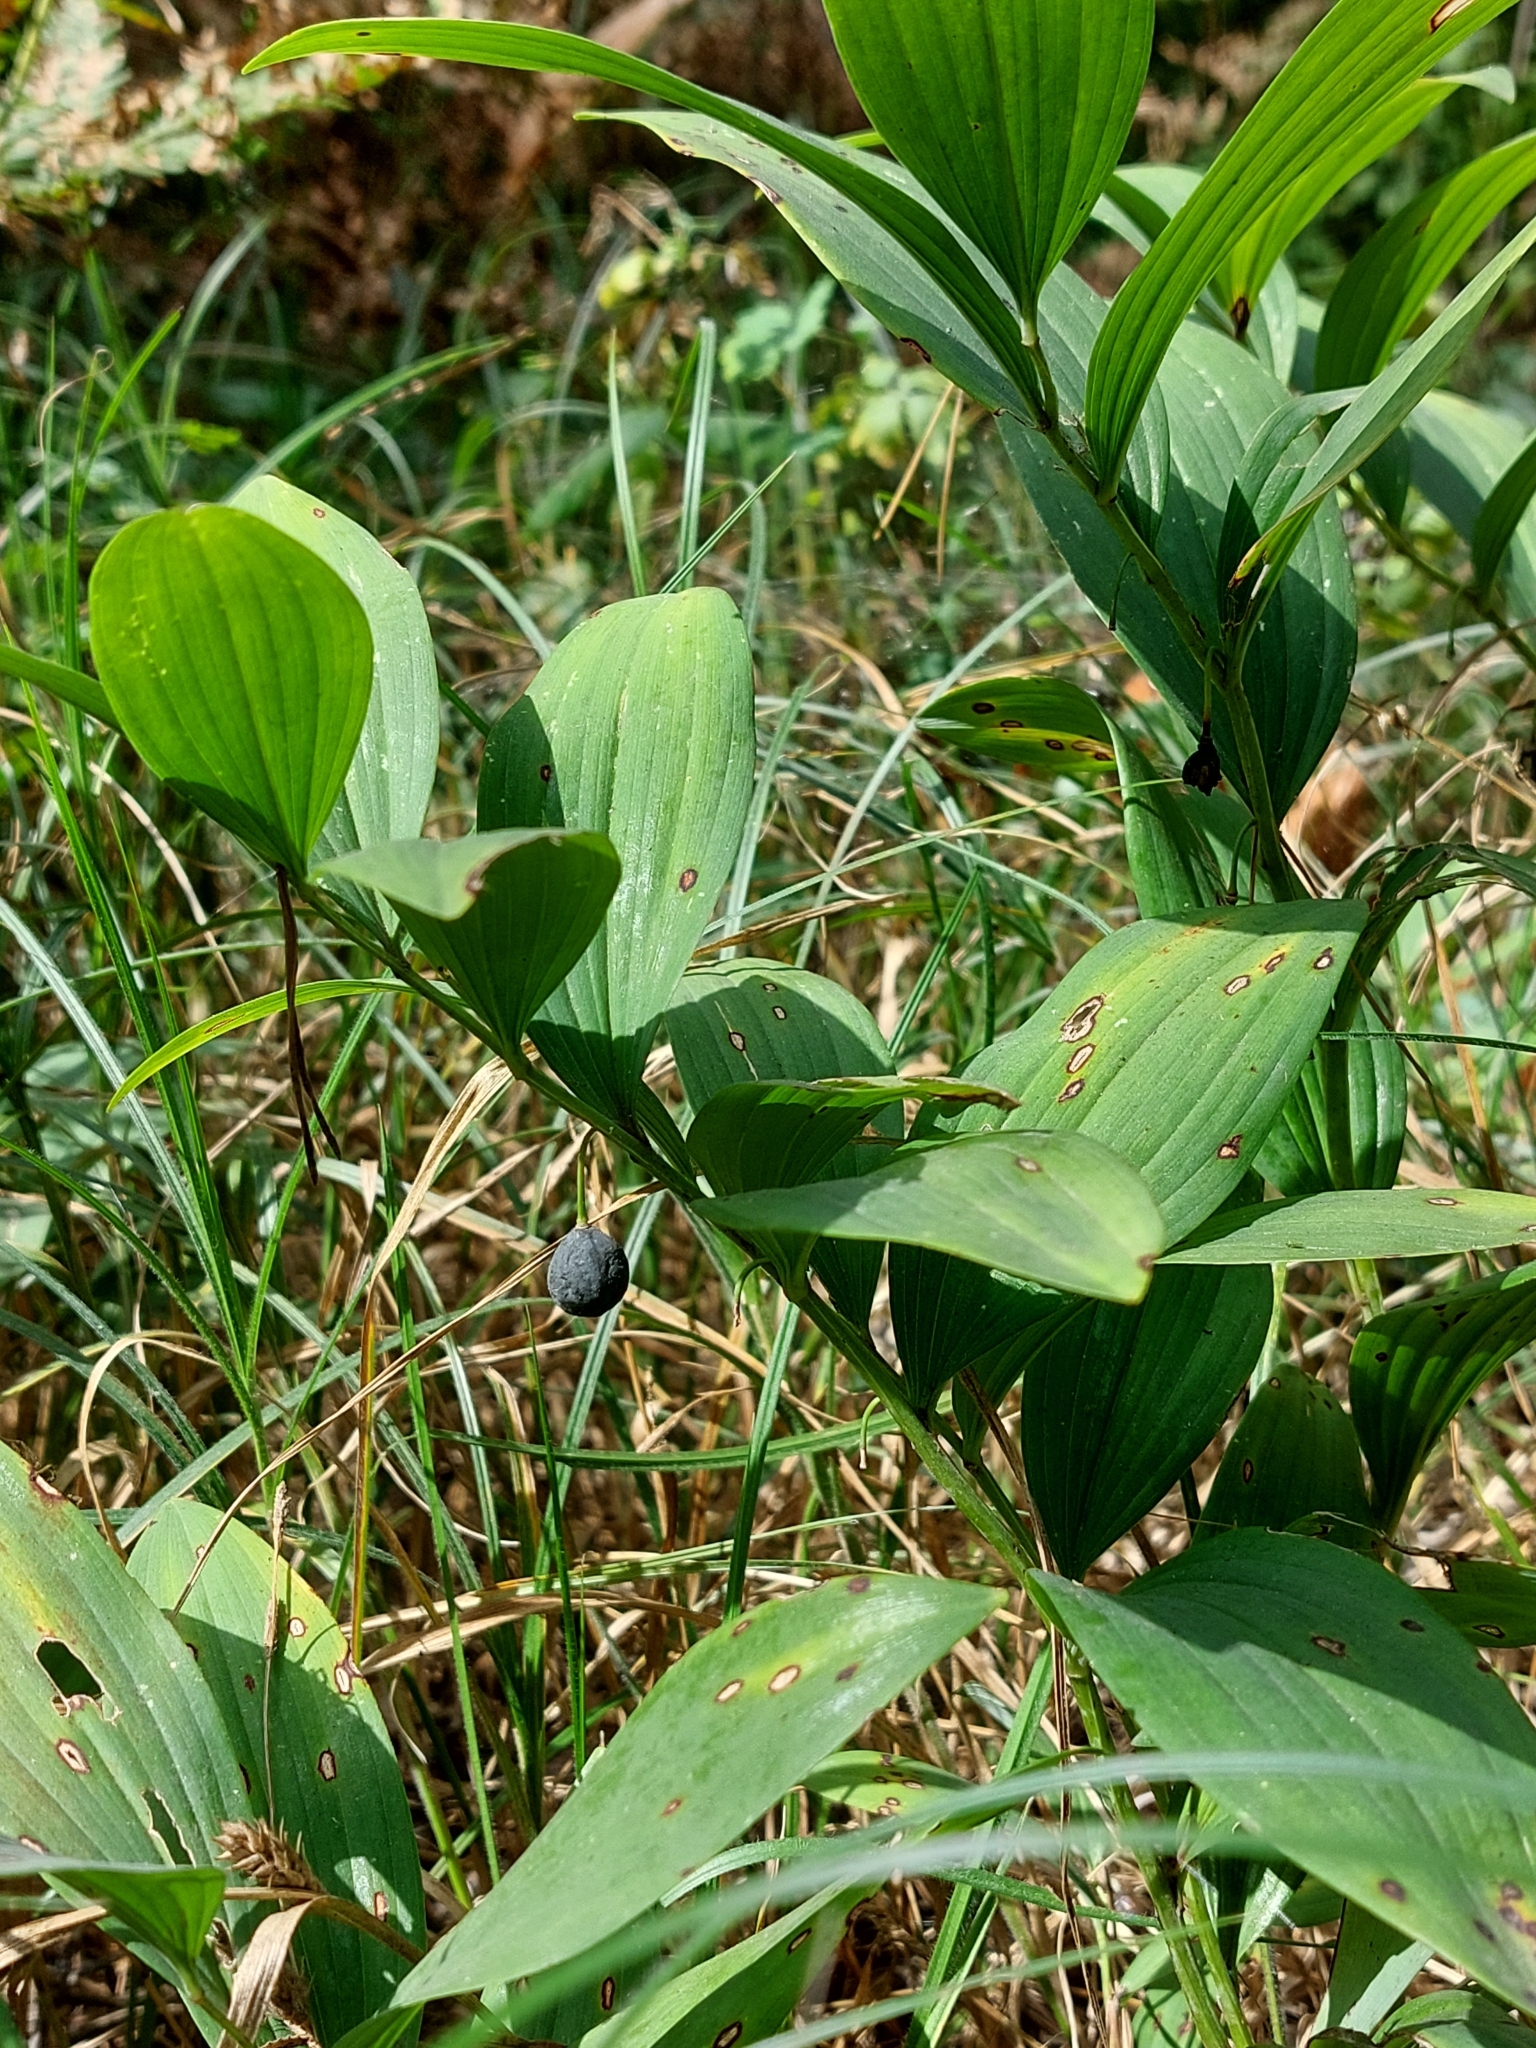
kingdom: Plantae
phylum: Tracheophyta
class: Liliopsida
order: Asparagales
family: Asparagaceae
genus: Polygonatum
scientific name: Polygonatum odoratum
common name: Angular solomon's-seal
